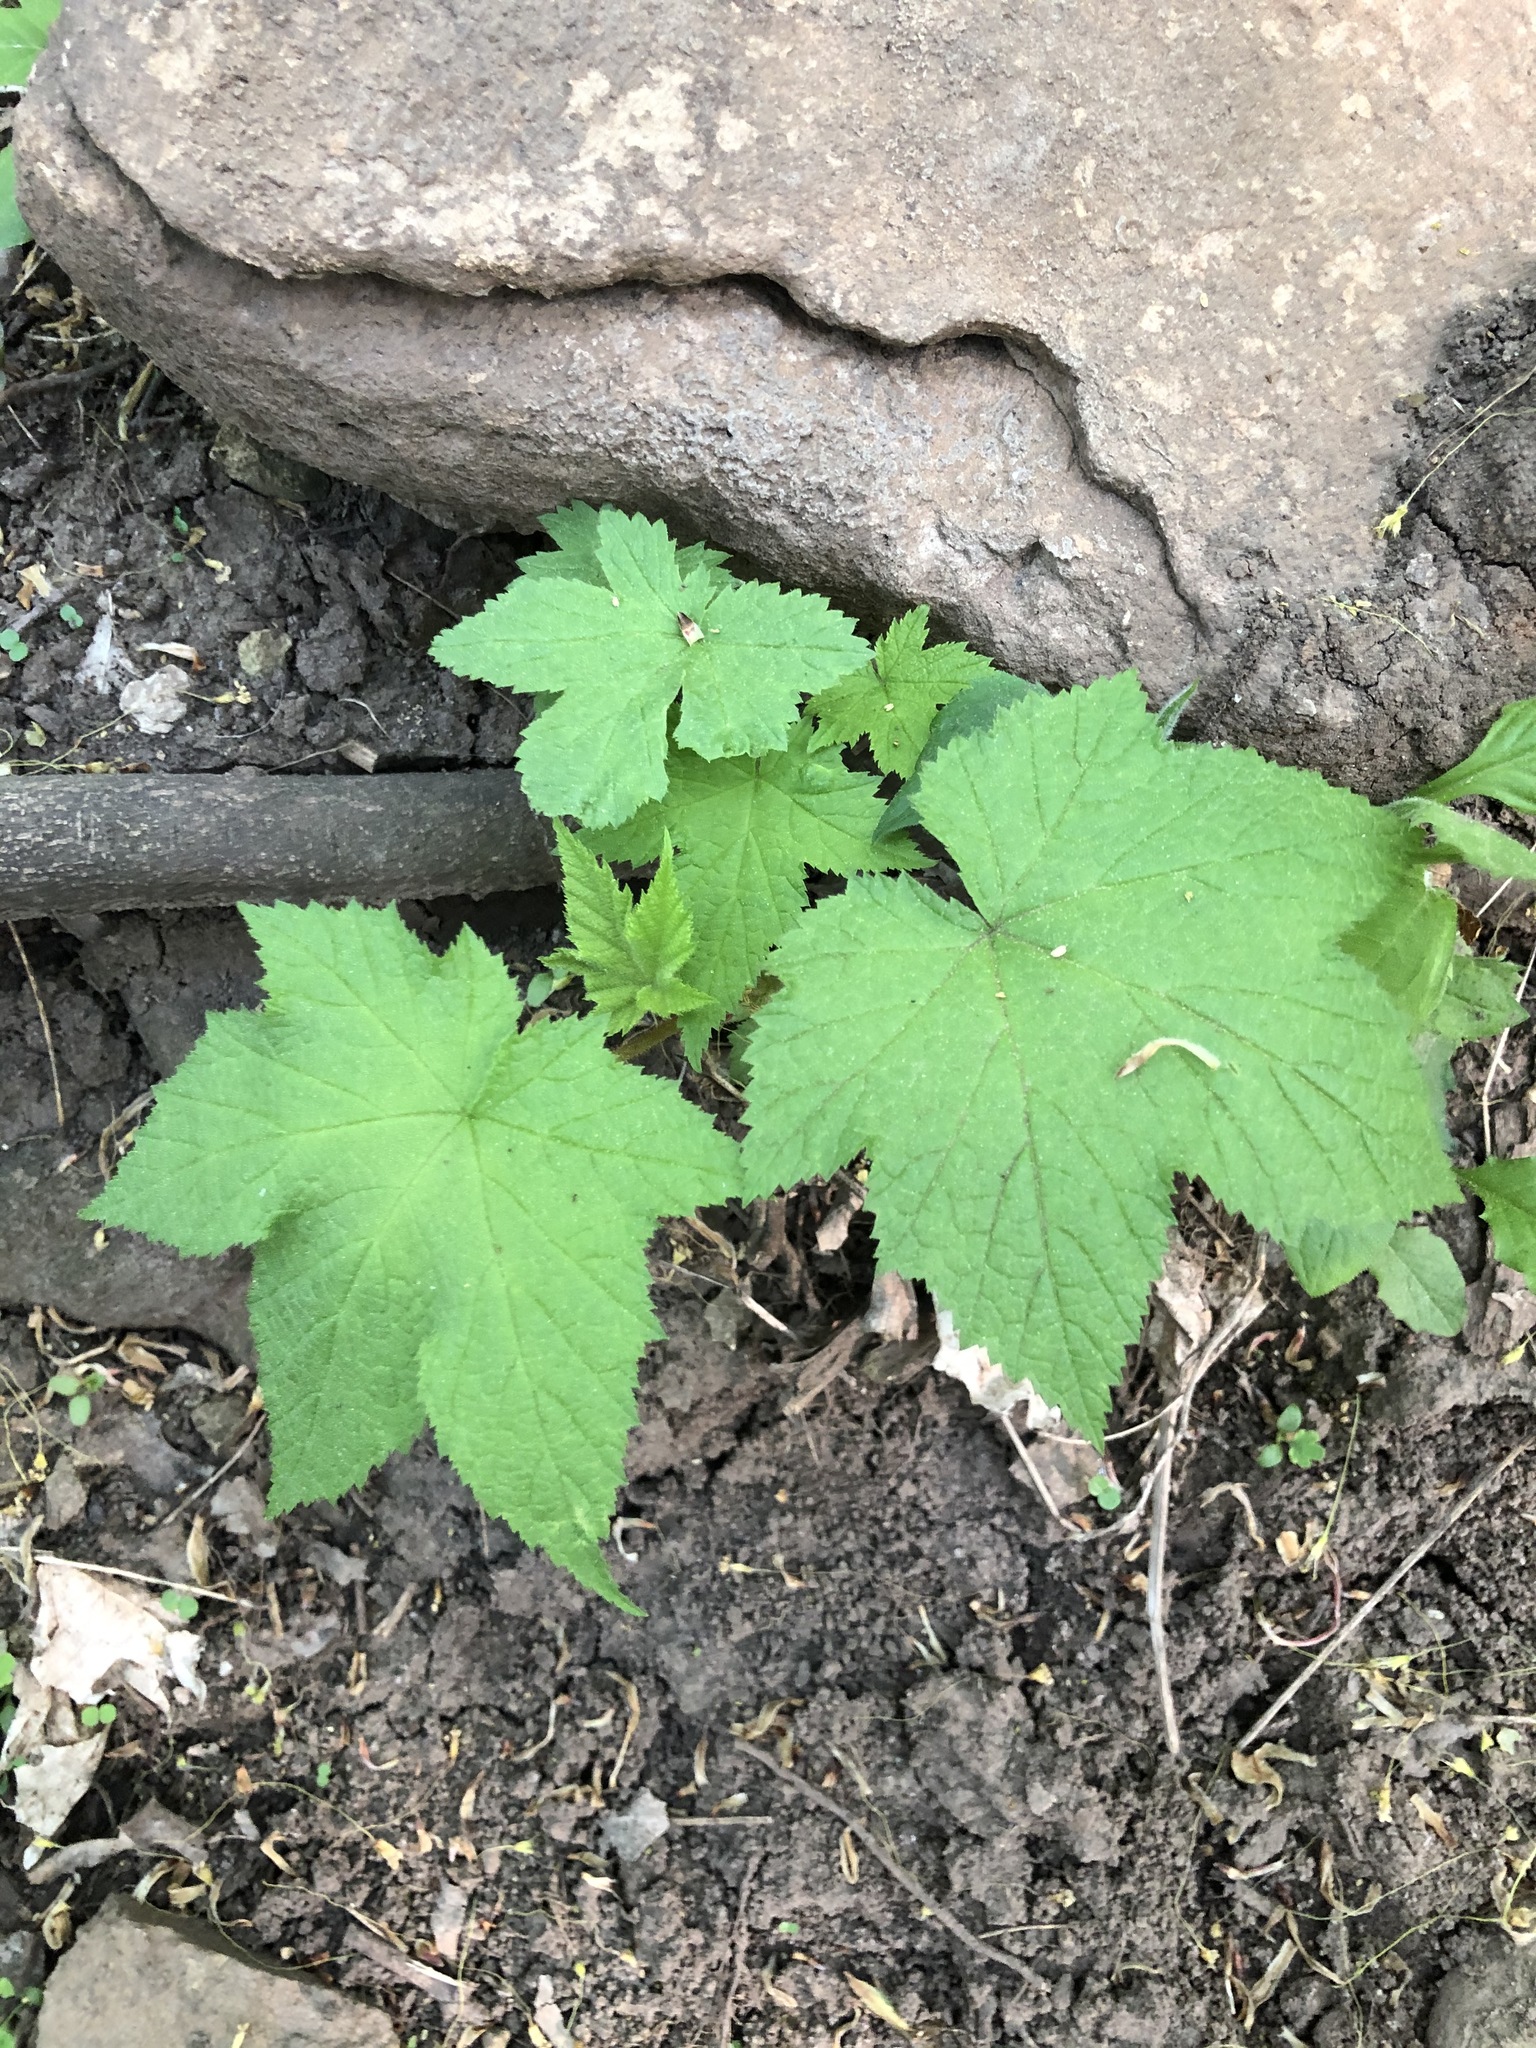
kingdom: Plantae
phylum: Tracheophyta
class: Magnoliopsida
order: Rosales
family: Rosaceae
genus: Rubus
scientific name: Rubus odoratus
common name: Purple-flowered raspberry
